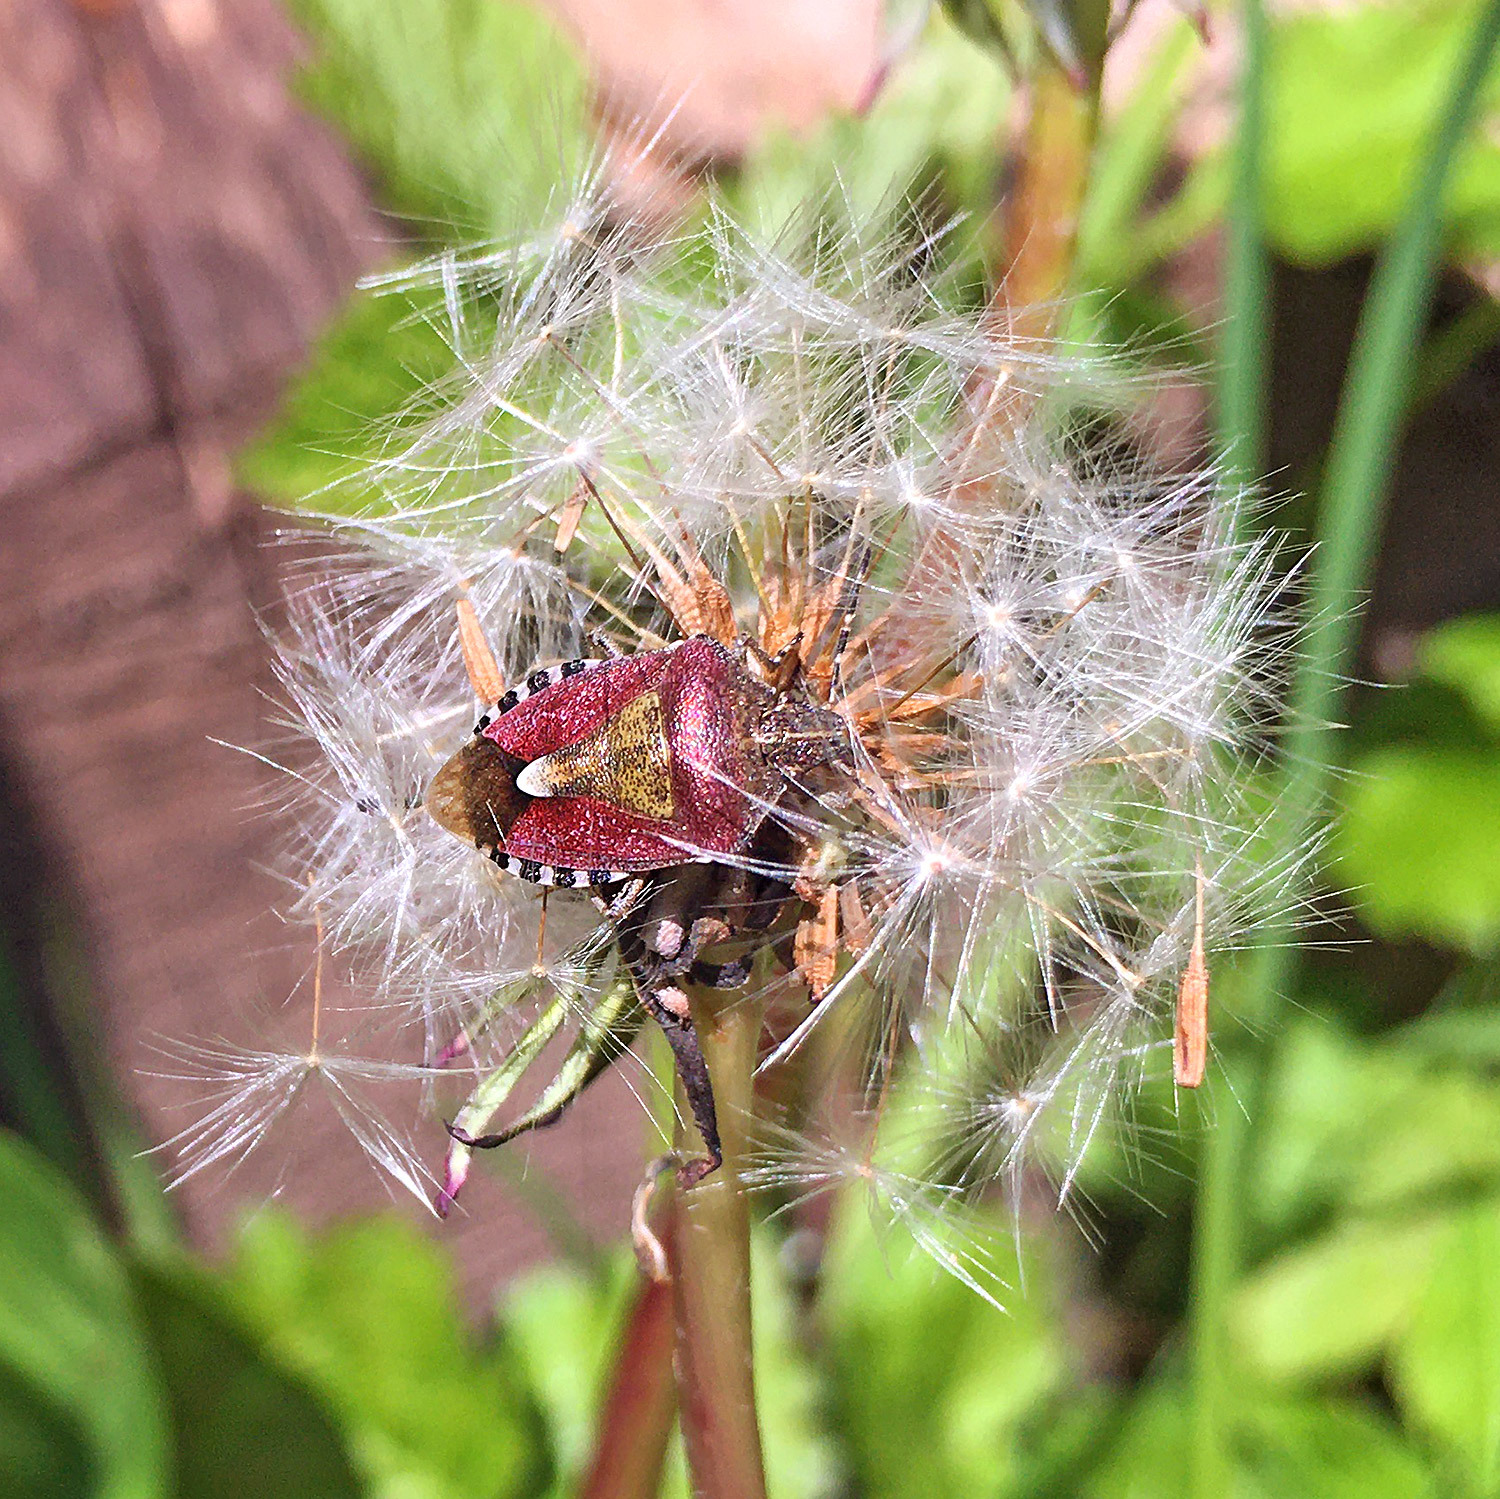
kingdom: Animalia
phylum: Arthropoda
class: Insecta
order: Hemiptera
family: Pentatomidae
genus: Dolycoris
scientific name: Dolycoris baccarum
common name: Sloe bug
